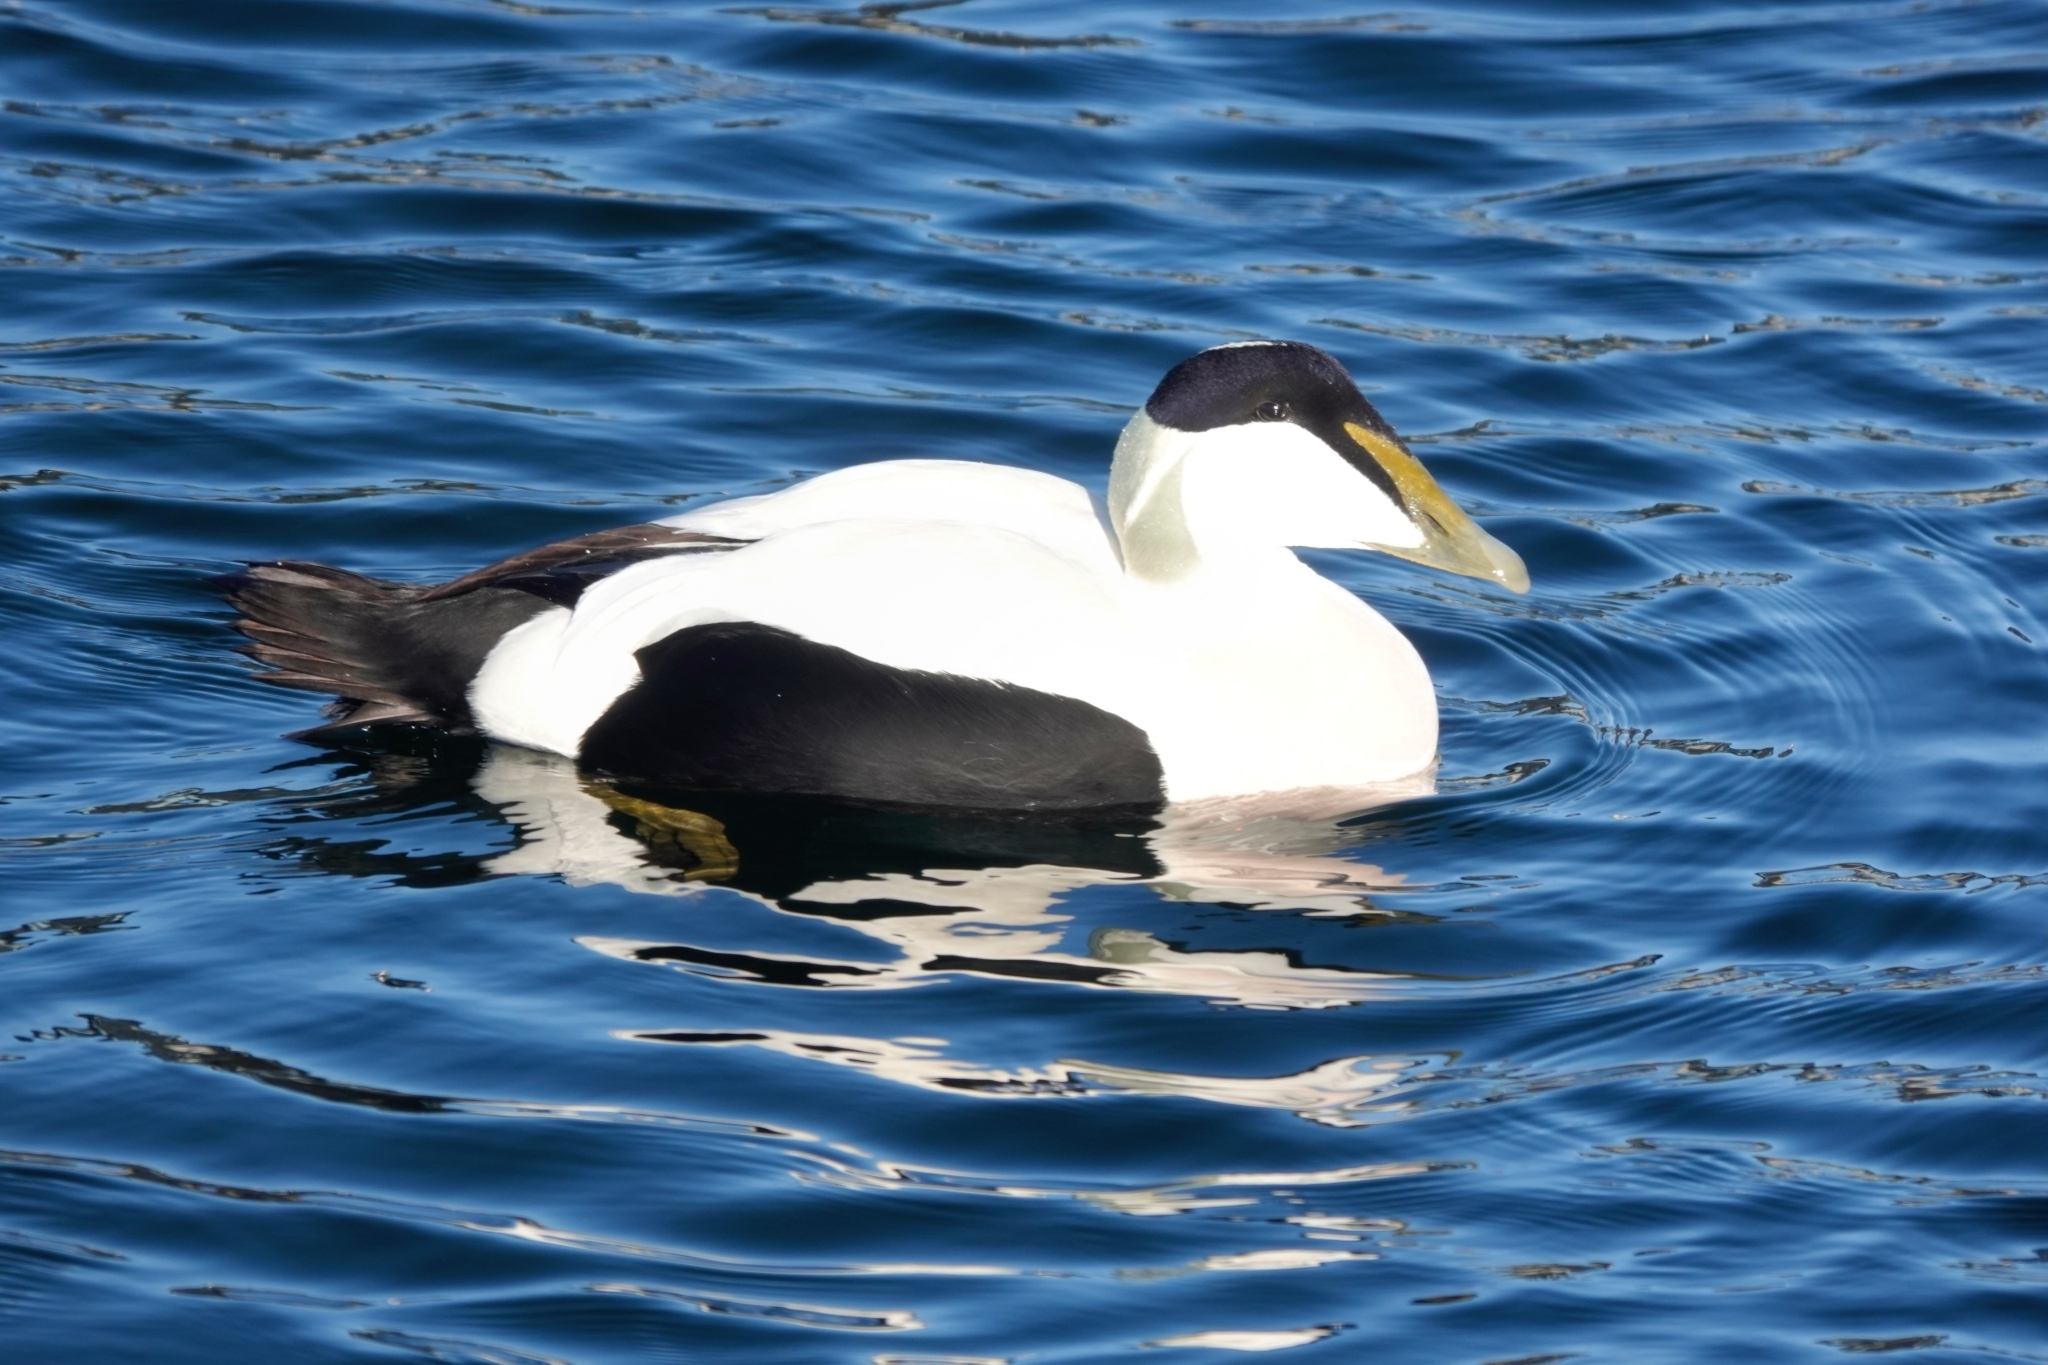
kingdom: Animalia
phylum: Chordata
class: Aves
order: Anseriformes
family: Anatidae
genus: Somateria
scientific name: Somateria mollissima
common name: Common eider
